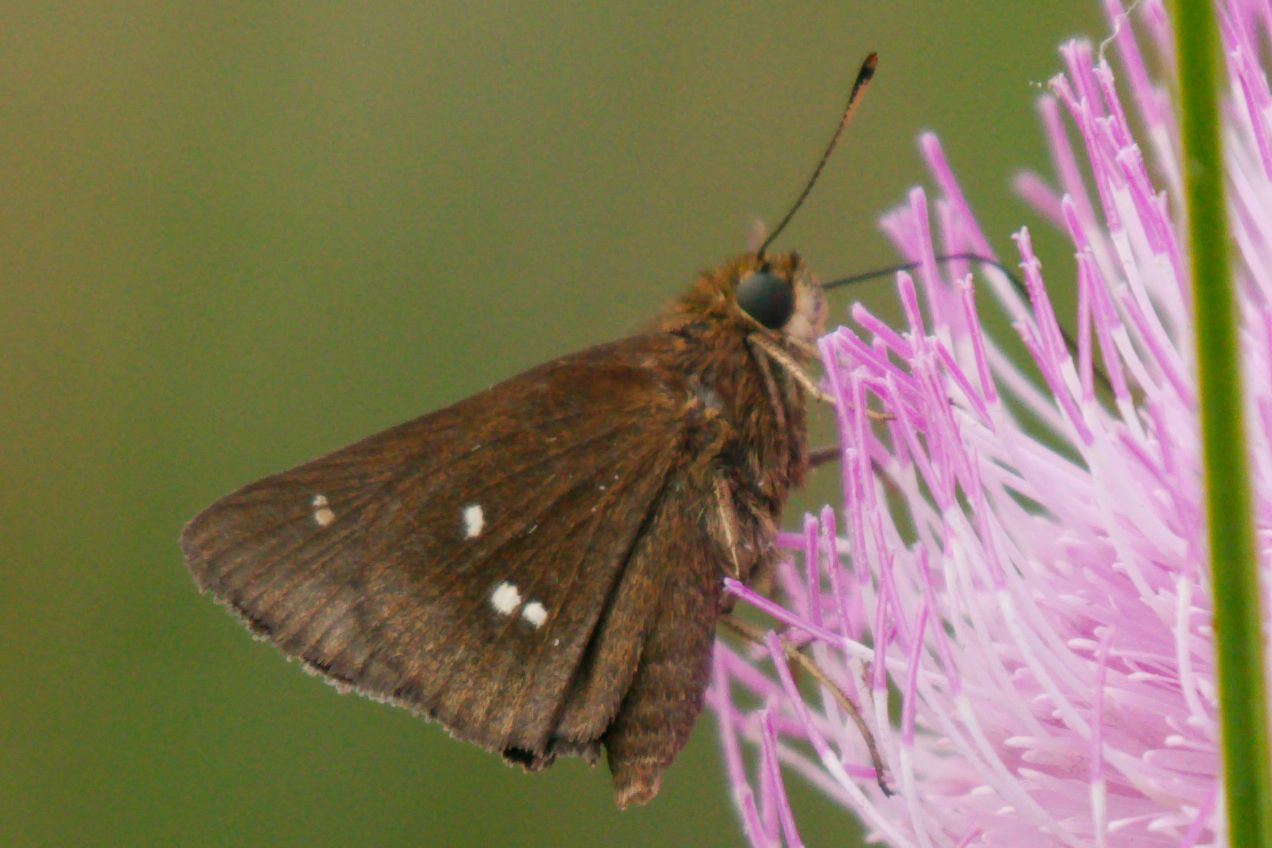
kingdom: Animalia
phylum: Arthropoda
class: Insecta
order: Lepidoptera
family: Hesperiidae
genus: Oligoria
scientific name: Oligoria maculata
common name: Twin-spot skipper
